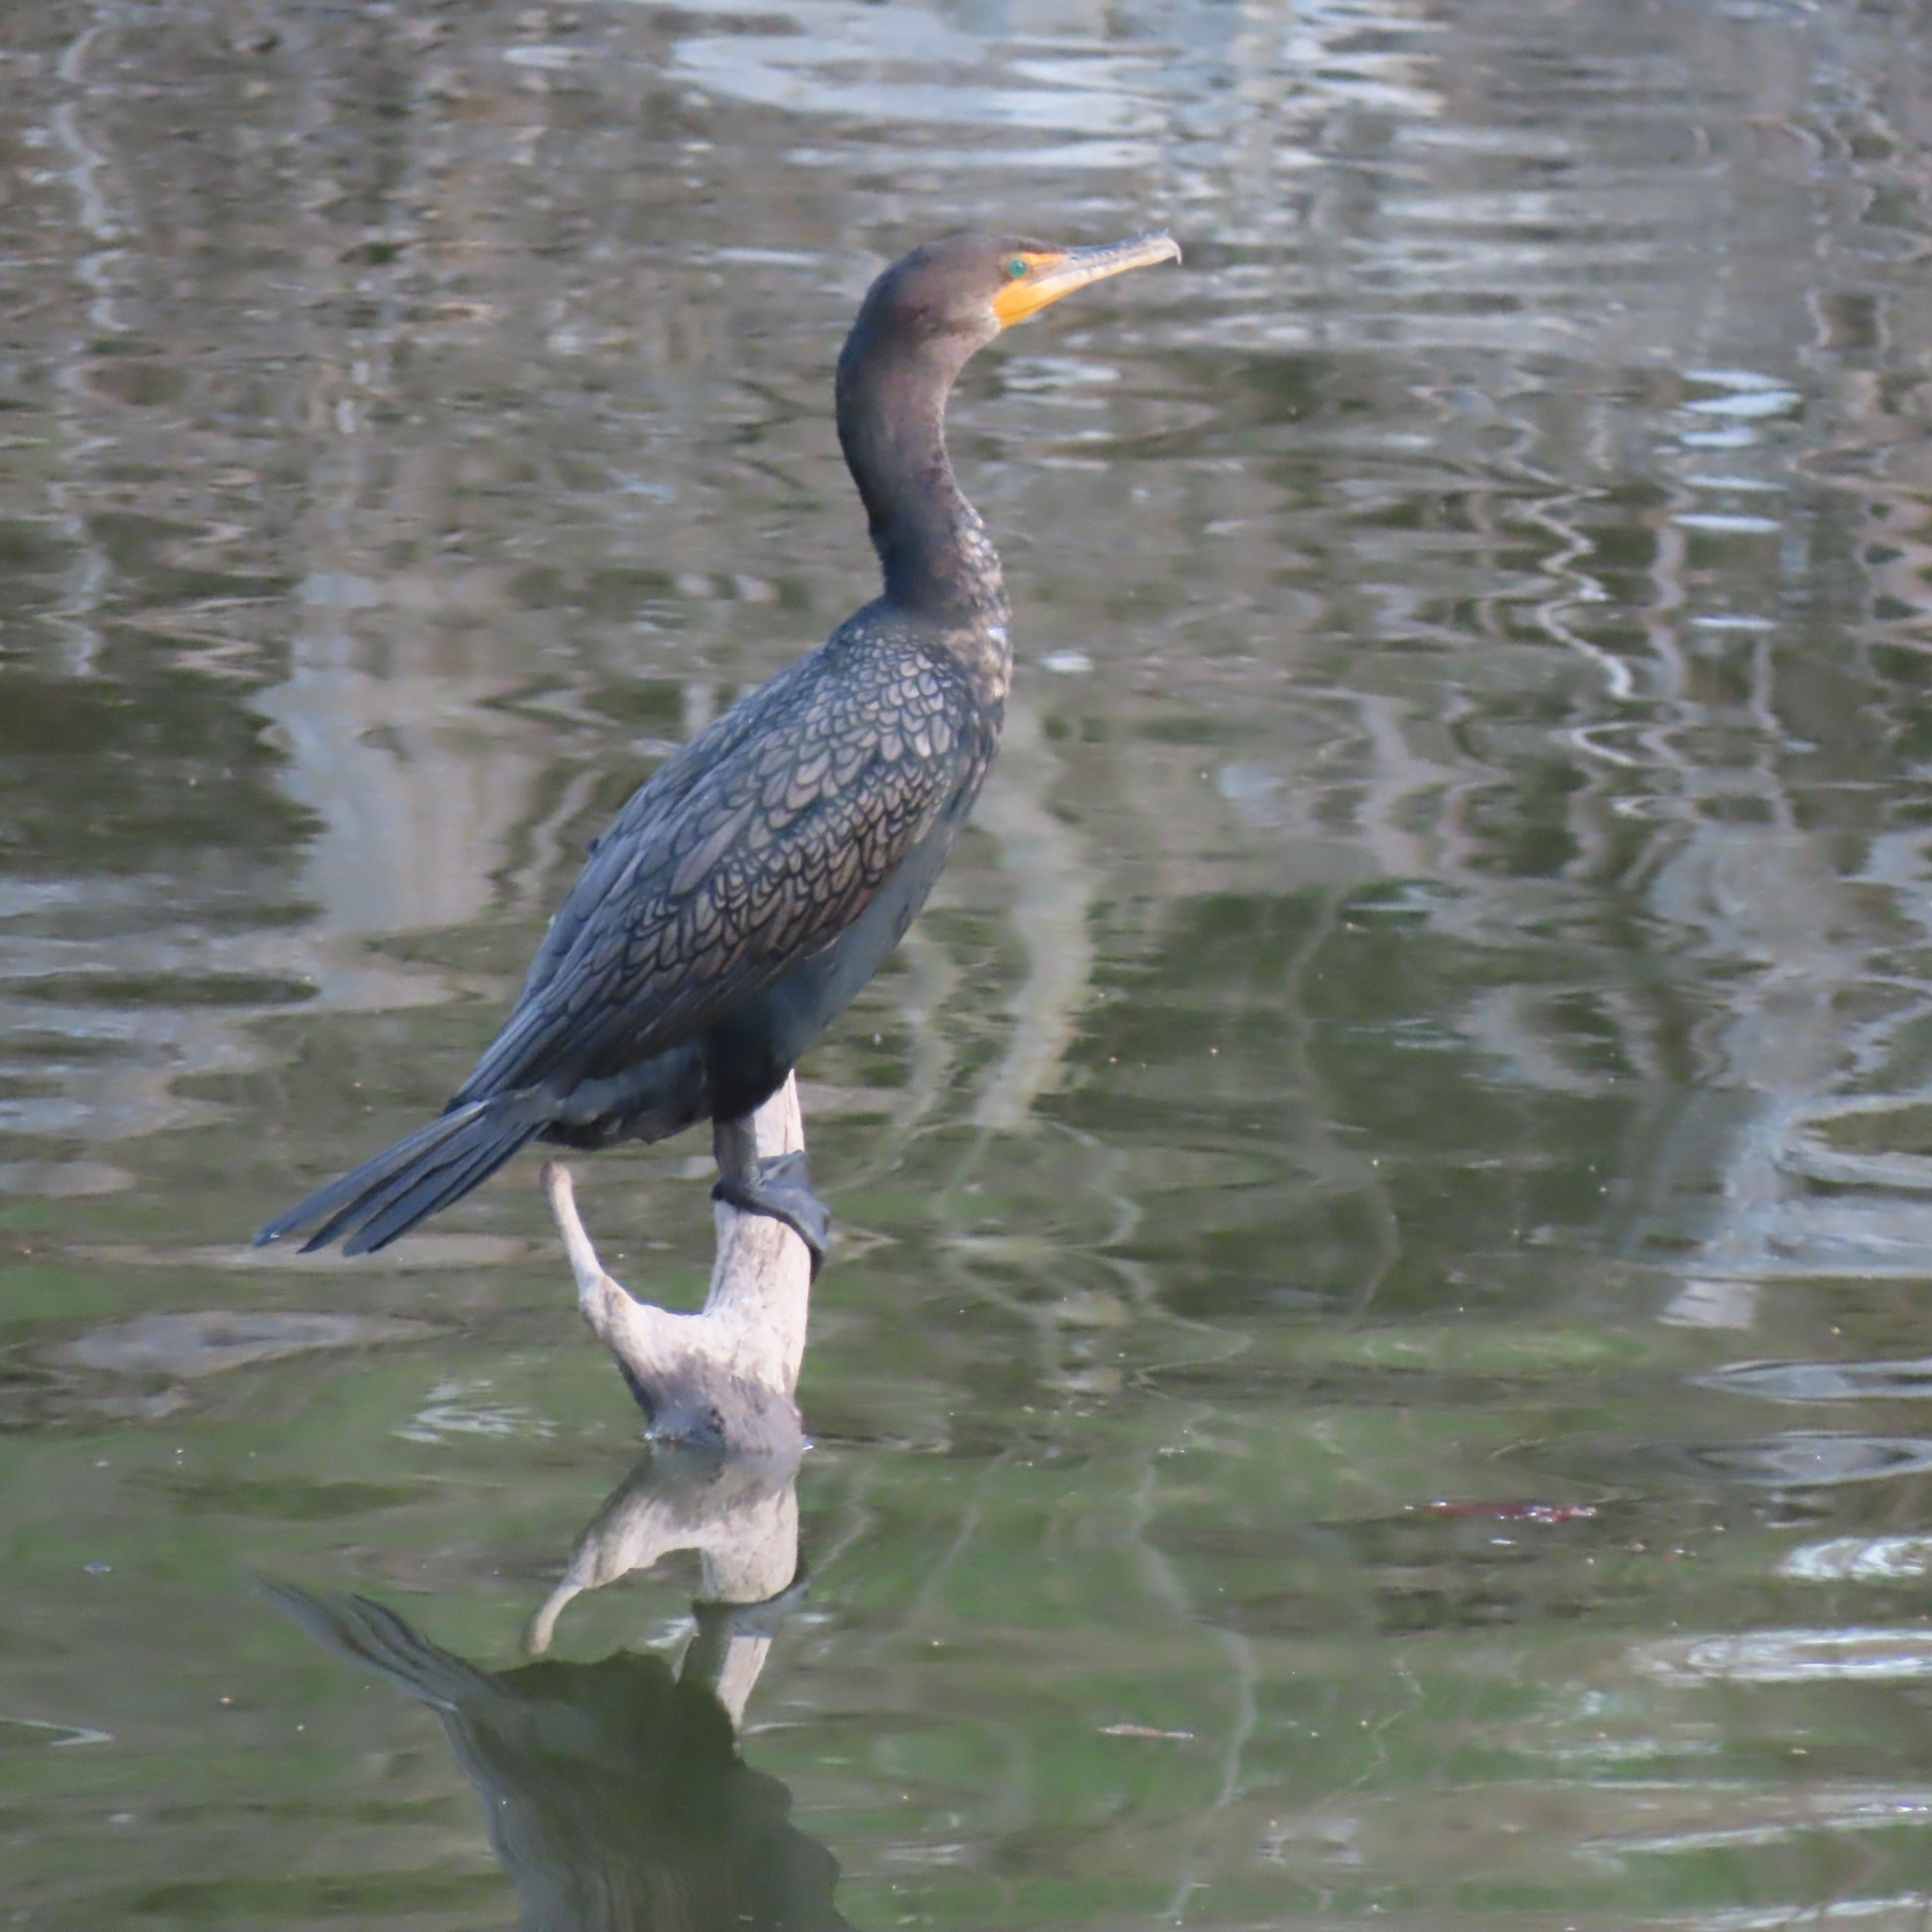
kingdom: Animalia
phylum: Chordata
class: Aves
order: Suliformes
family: Phalacrocoracidae
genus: Phalacrocorax
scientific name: Phalacrocorax auritus
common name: Double-crested cormorant
